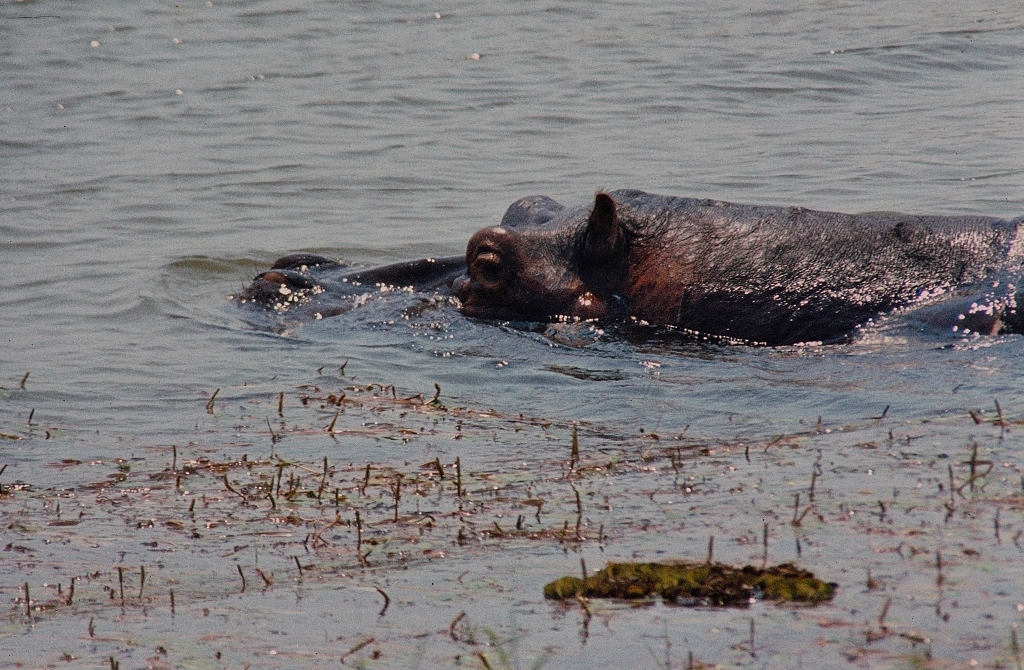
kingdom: Animalia
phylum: Chordata
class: Mammalia
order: Artiodactyla
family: Hippopotamidae
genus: Hippopotamus
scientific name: Hippopotamus amphibius
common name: Common hippopotamus
